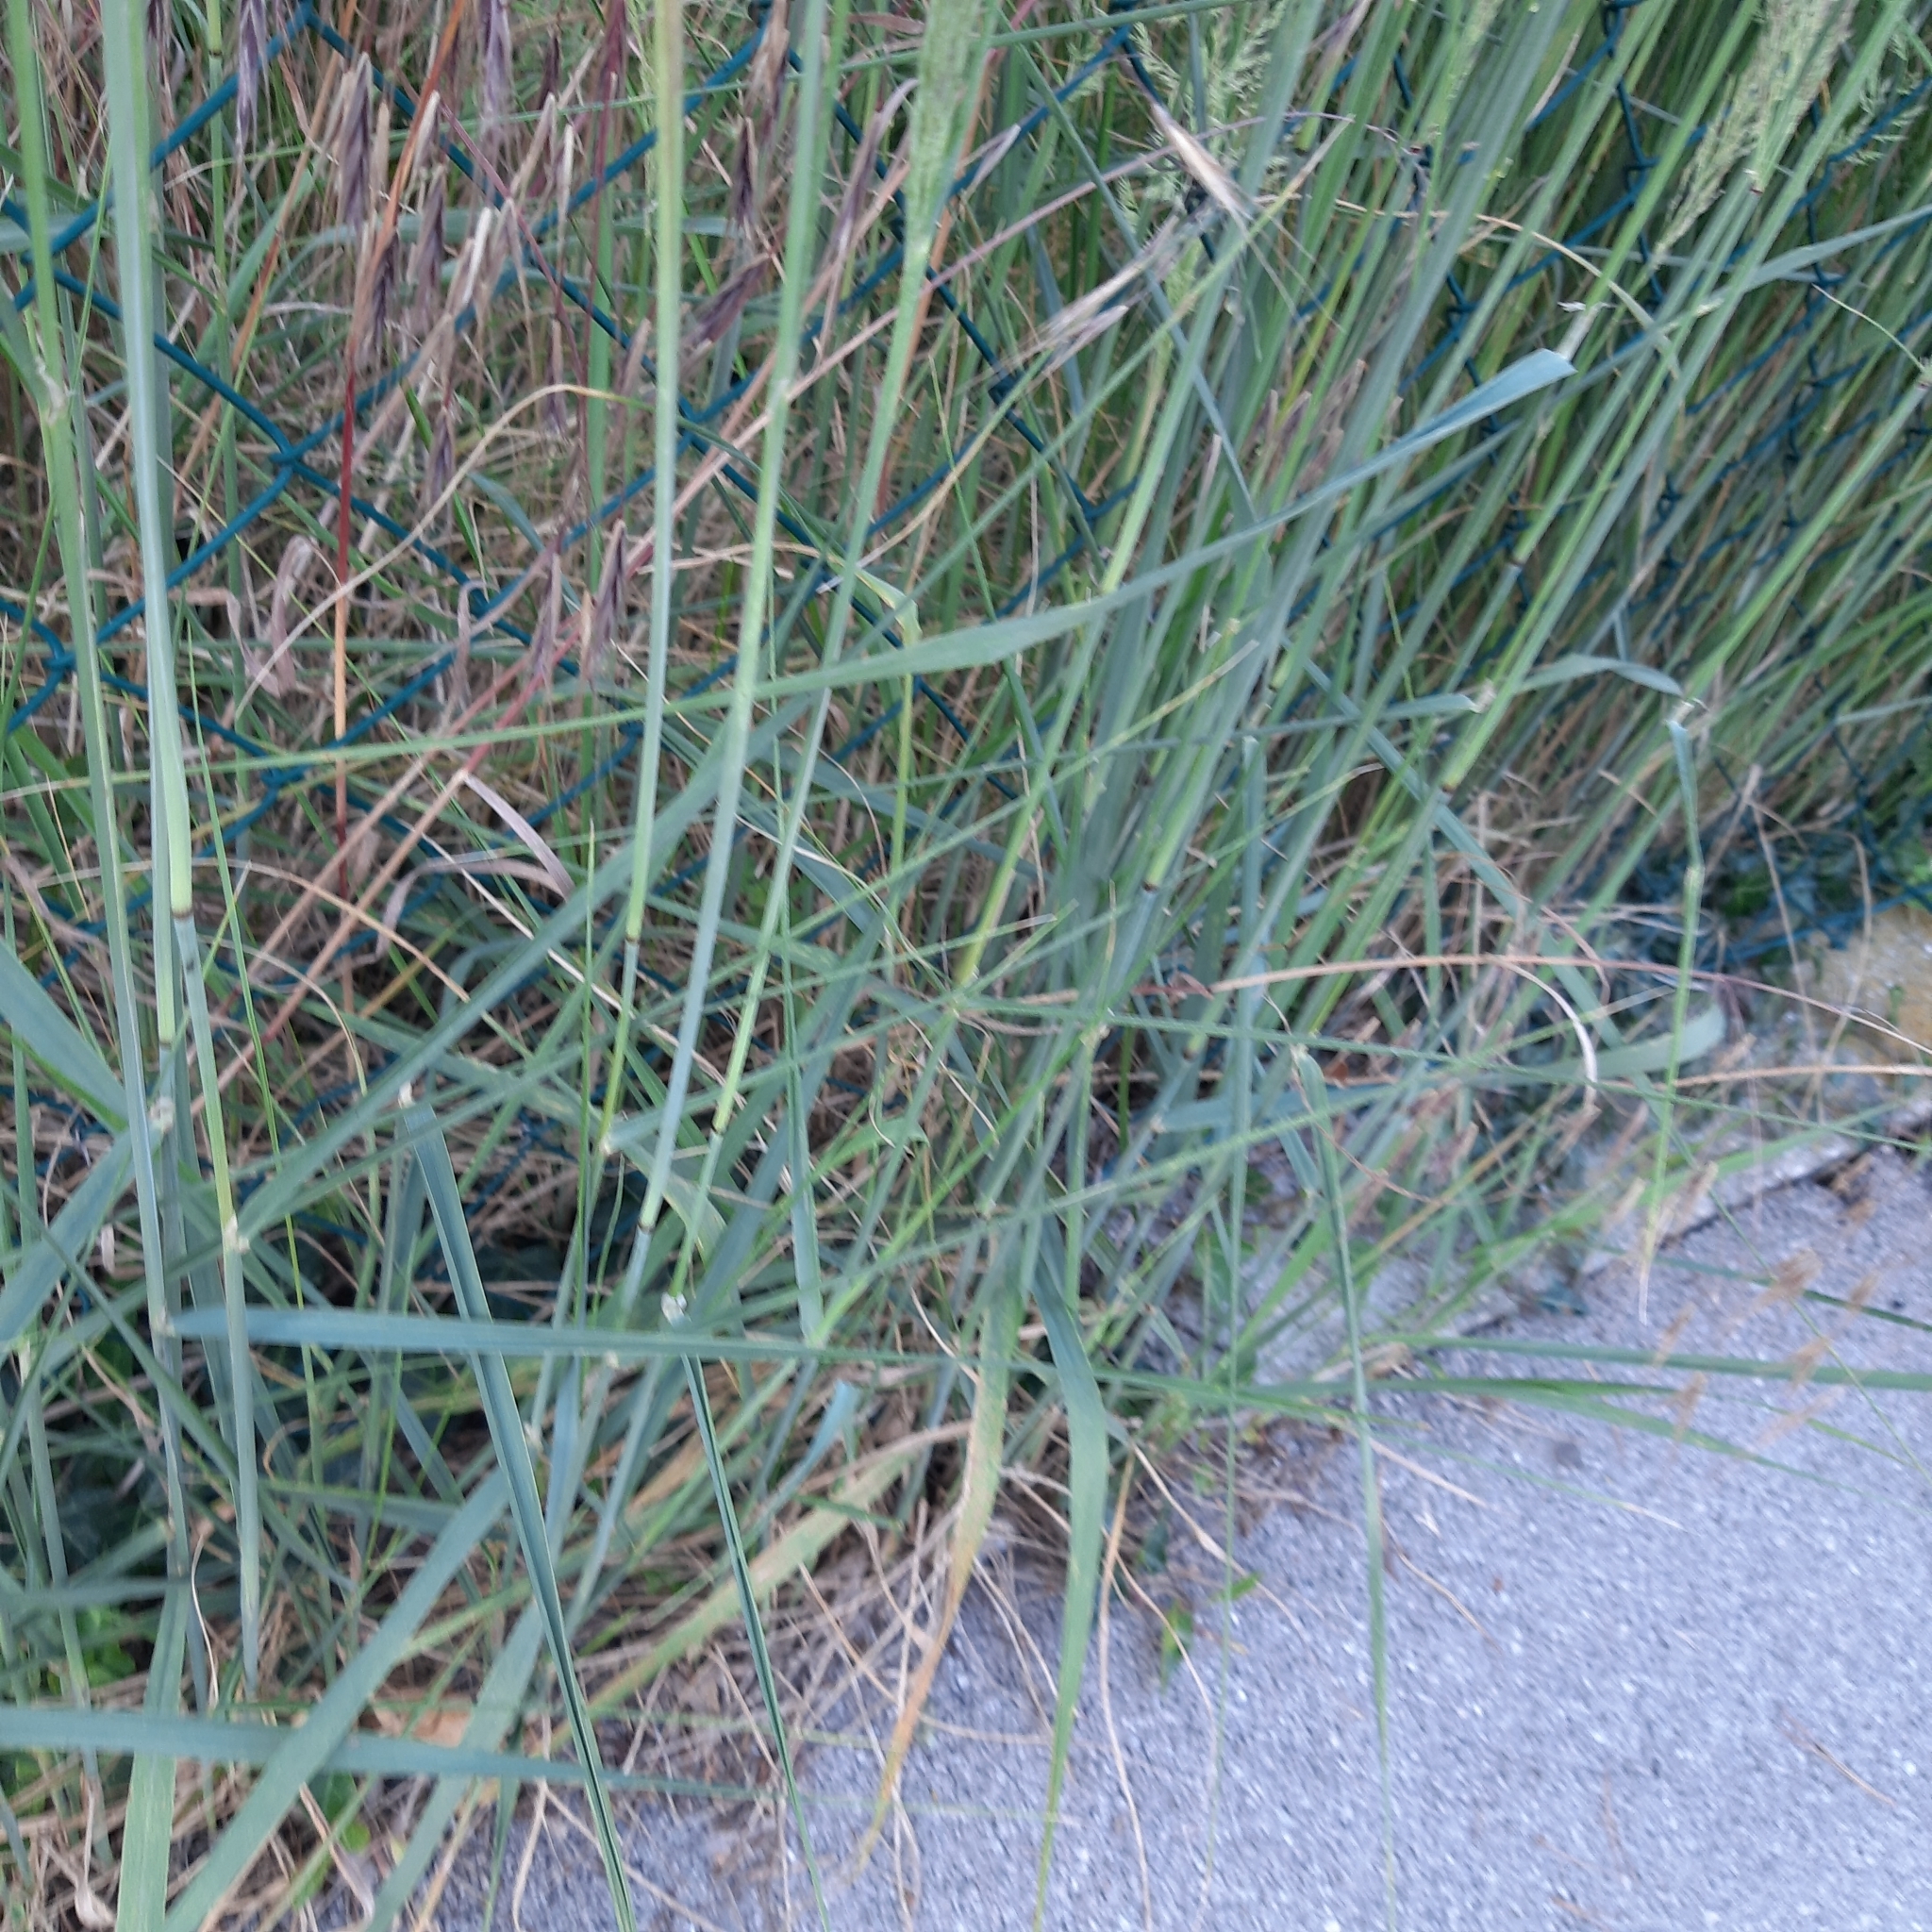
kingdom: Plantae
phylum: Tracheophyta
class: Liliopsida
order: Poales
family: Poaceae
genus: Calamagrostis
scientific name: Calamagrostis epigejos
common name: Wood small-reed
